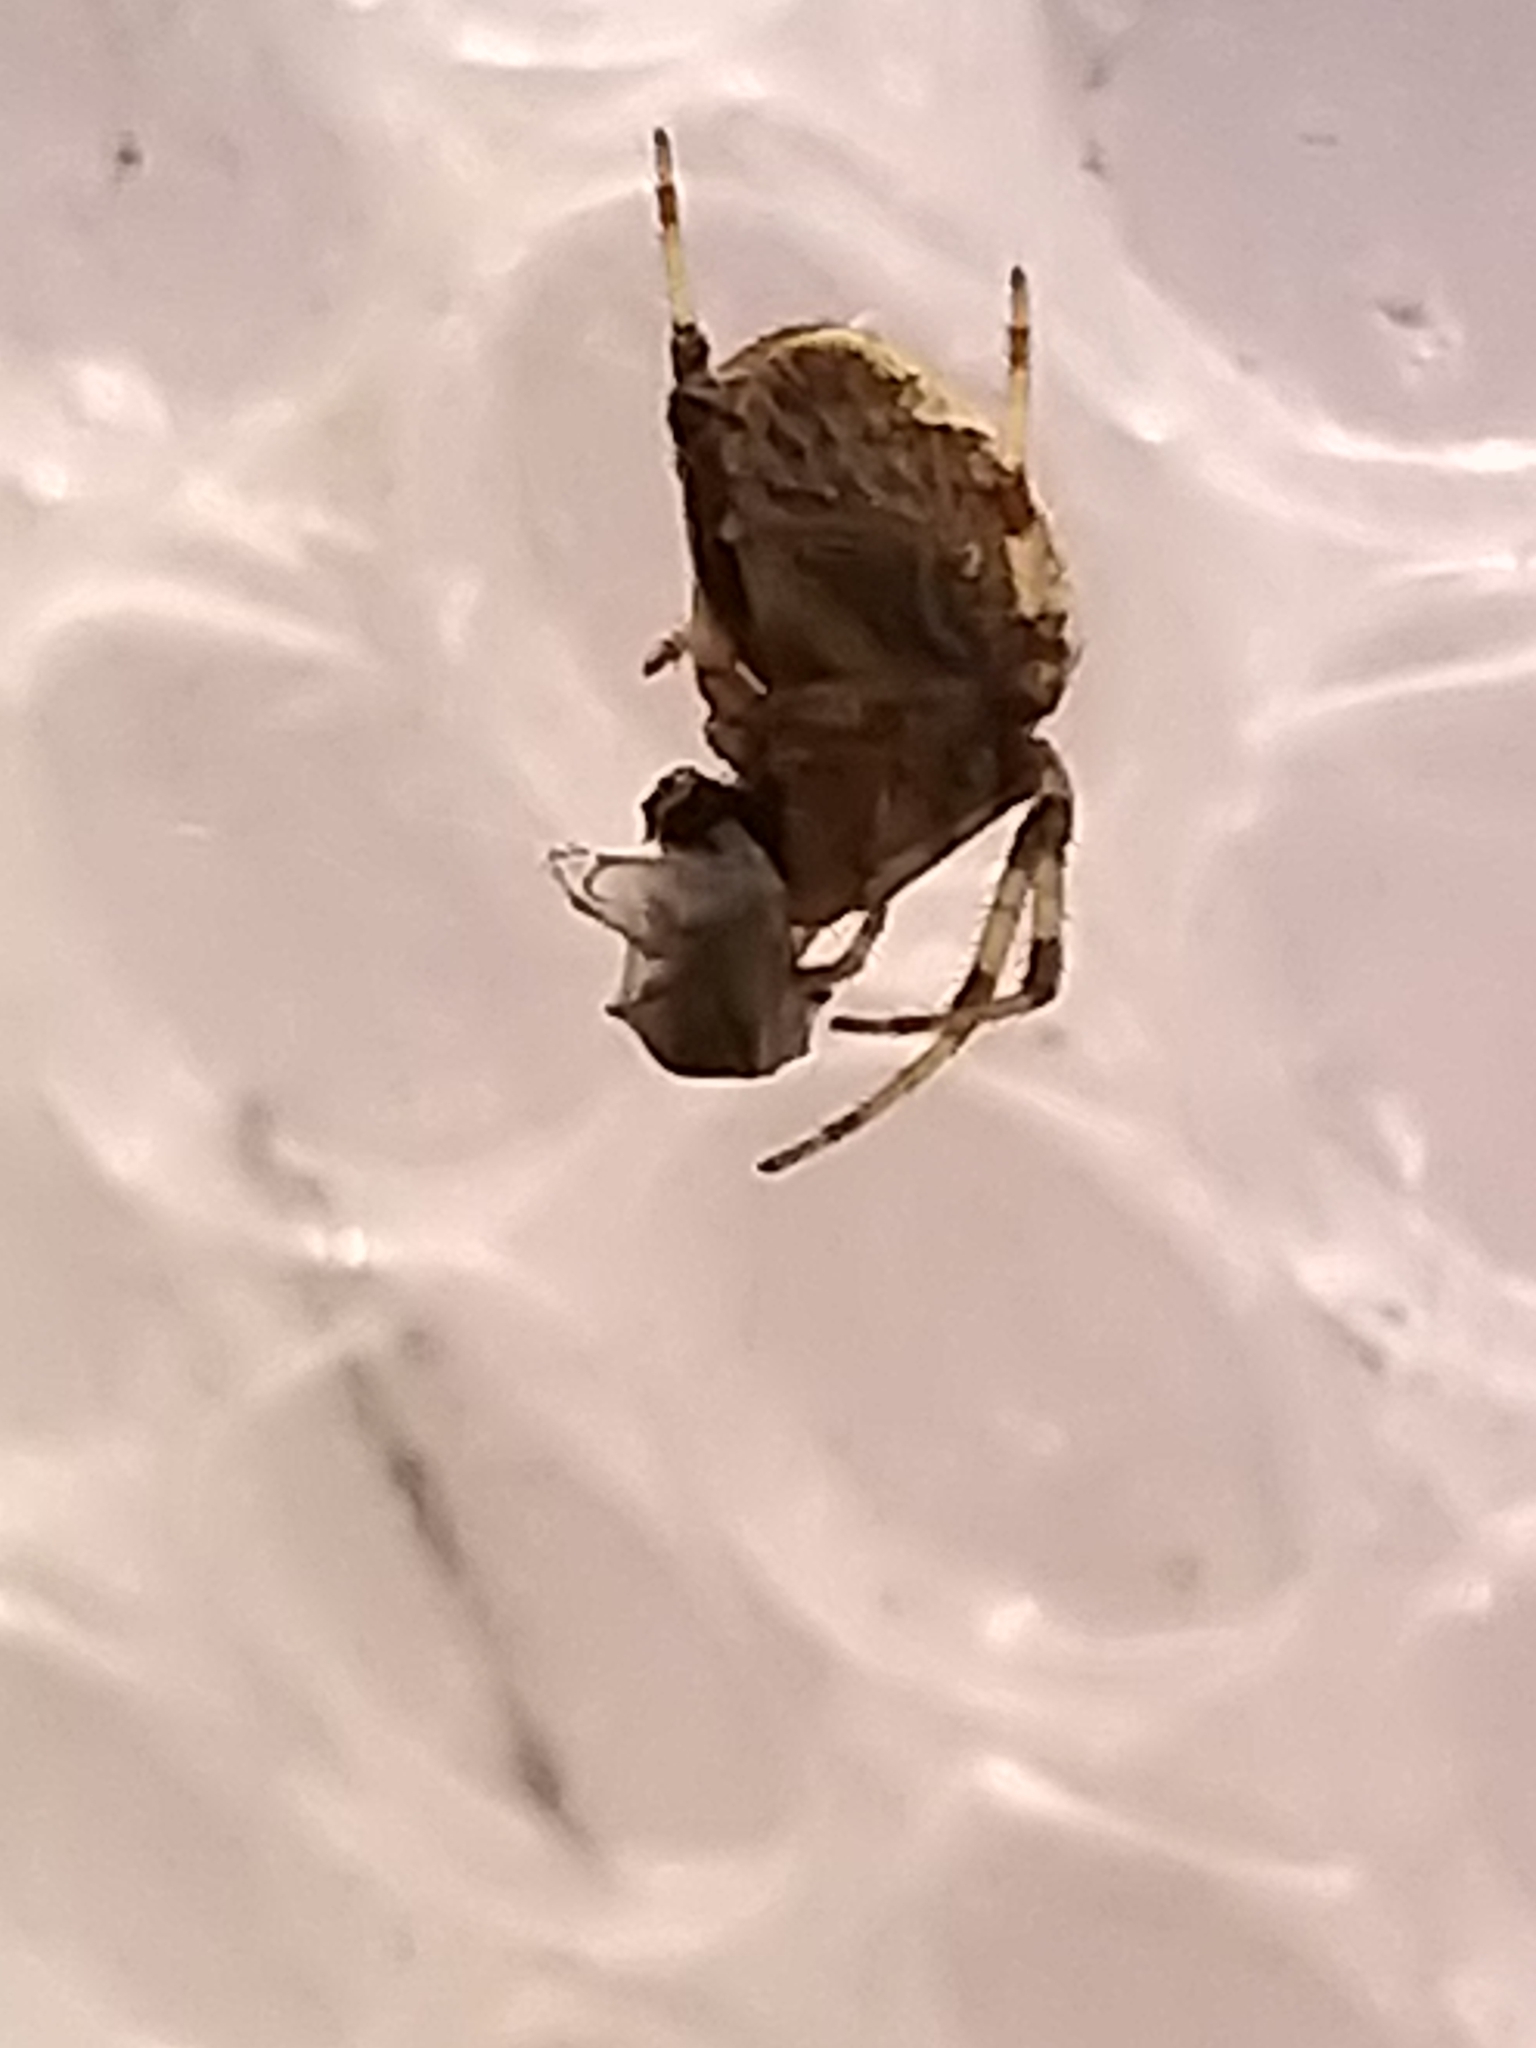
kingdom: Animalia
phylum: Arthropoda
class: Arachnida
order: Araneae
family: Araneidae
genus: Araneus
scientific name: Araneus diadematus
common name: Cross orbweaver
